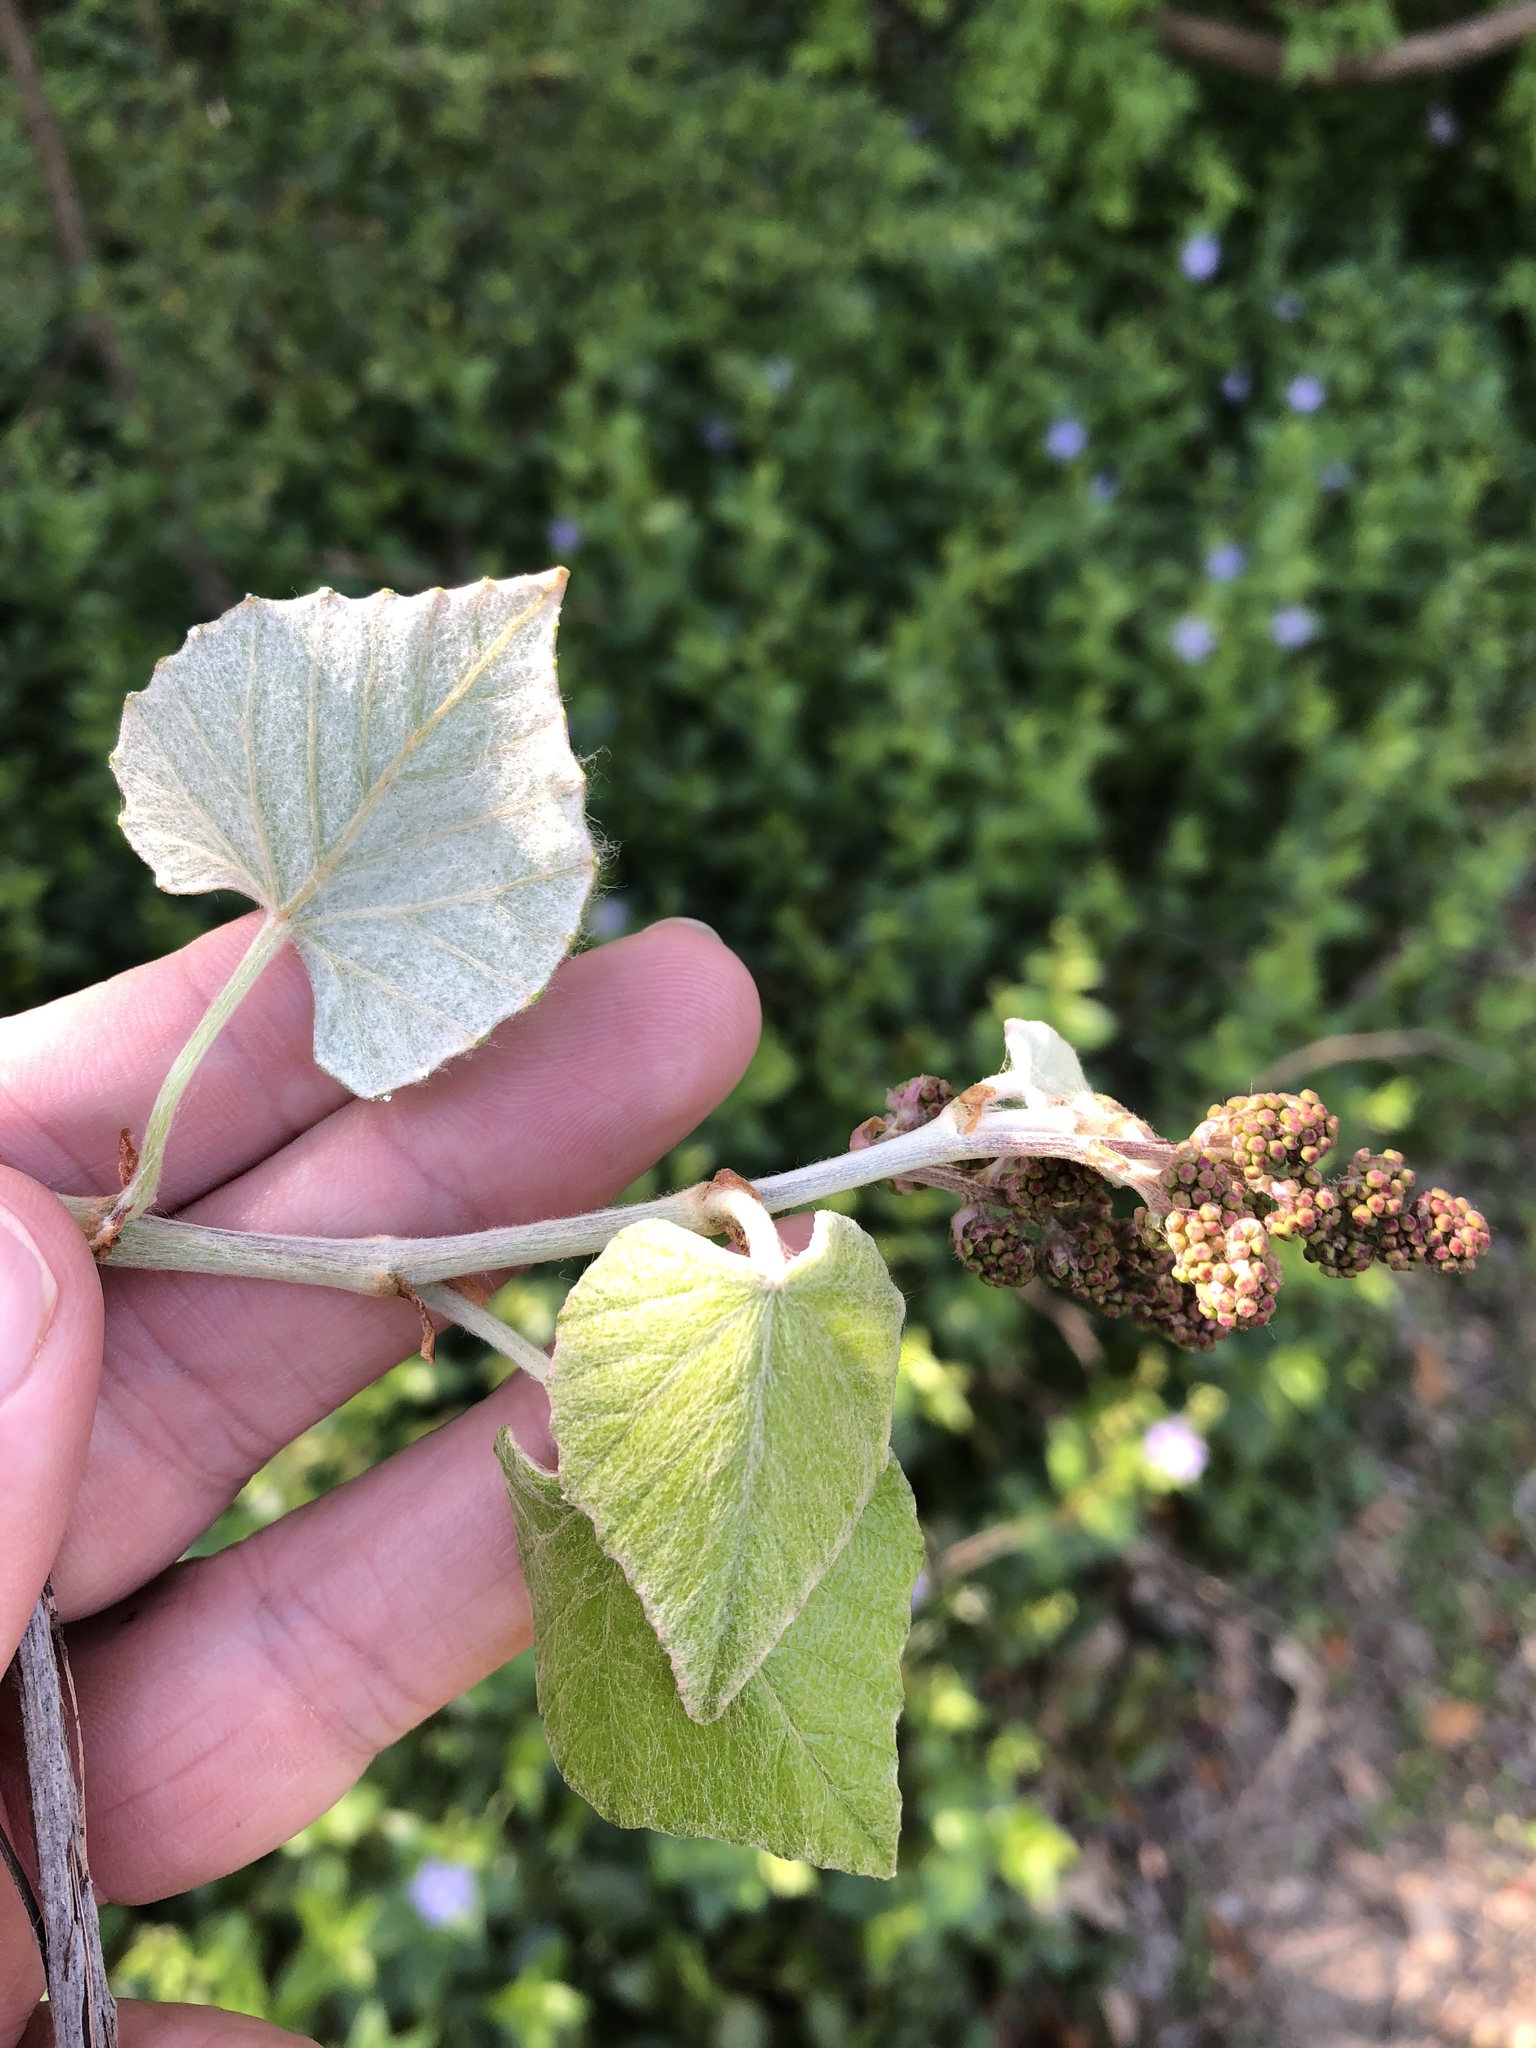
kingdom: Plantae
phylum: Tracheophyta
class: Magnoliopsida
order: Vitales
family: Vitaceae
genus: Vitis
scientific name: Vitis mustangensis
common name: Mustang grape
